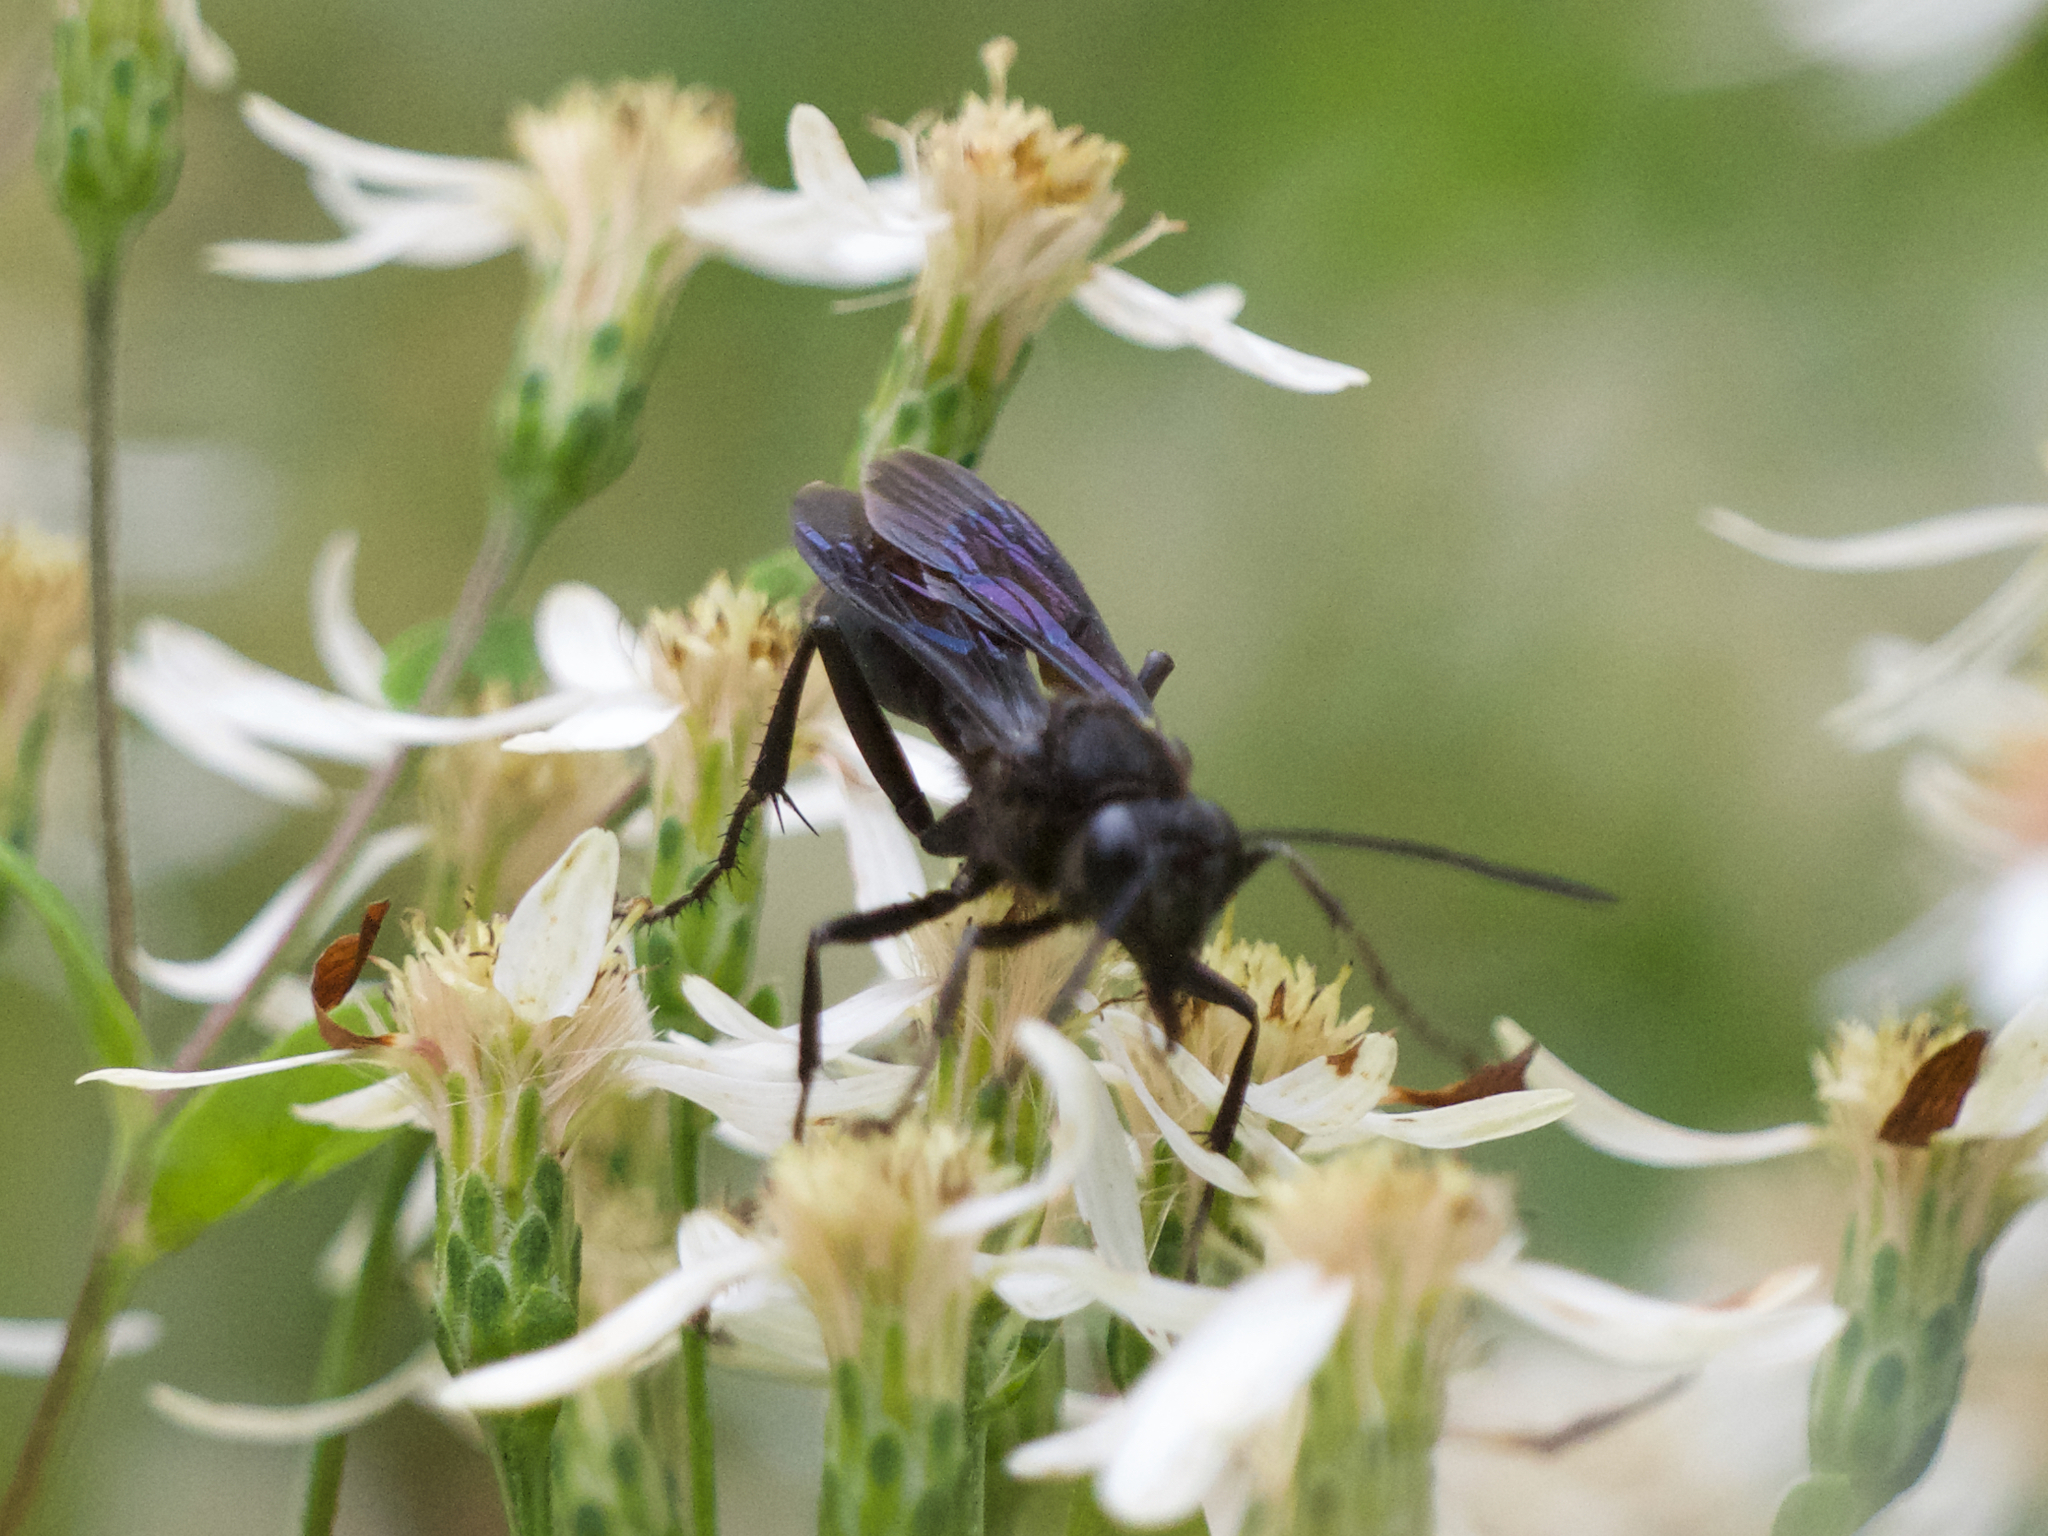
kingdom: Animalia
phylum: Arthropoda
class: Insecta
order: Hymenoptera
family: Sphecidae
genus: Sphex
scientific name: Sphex pensylvanicus
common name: Great black digger wasp
